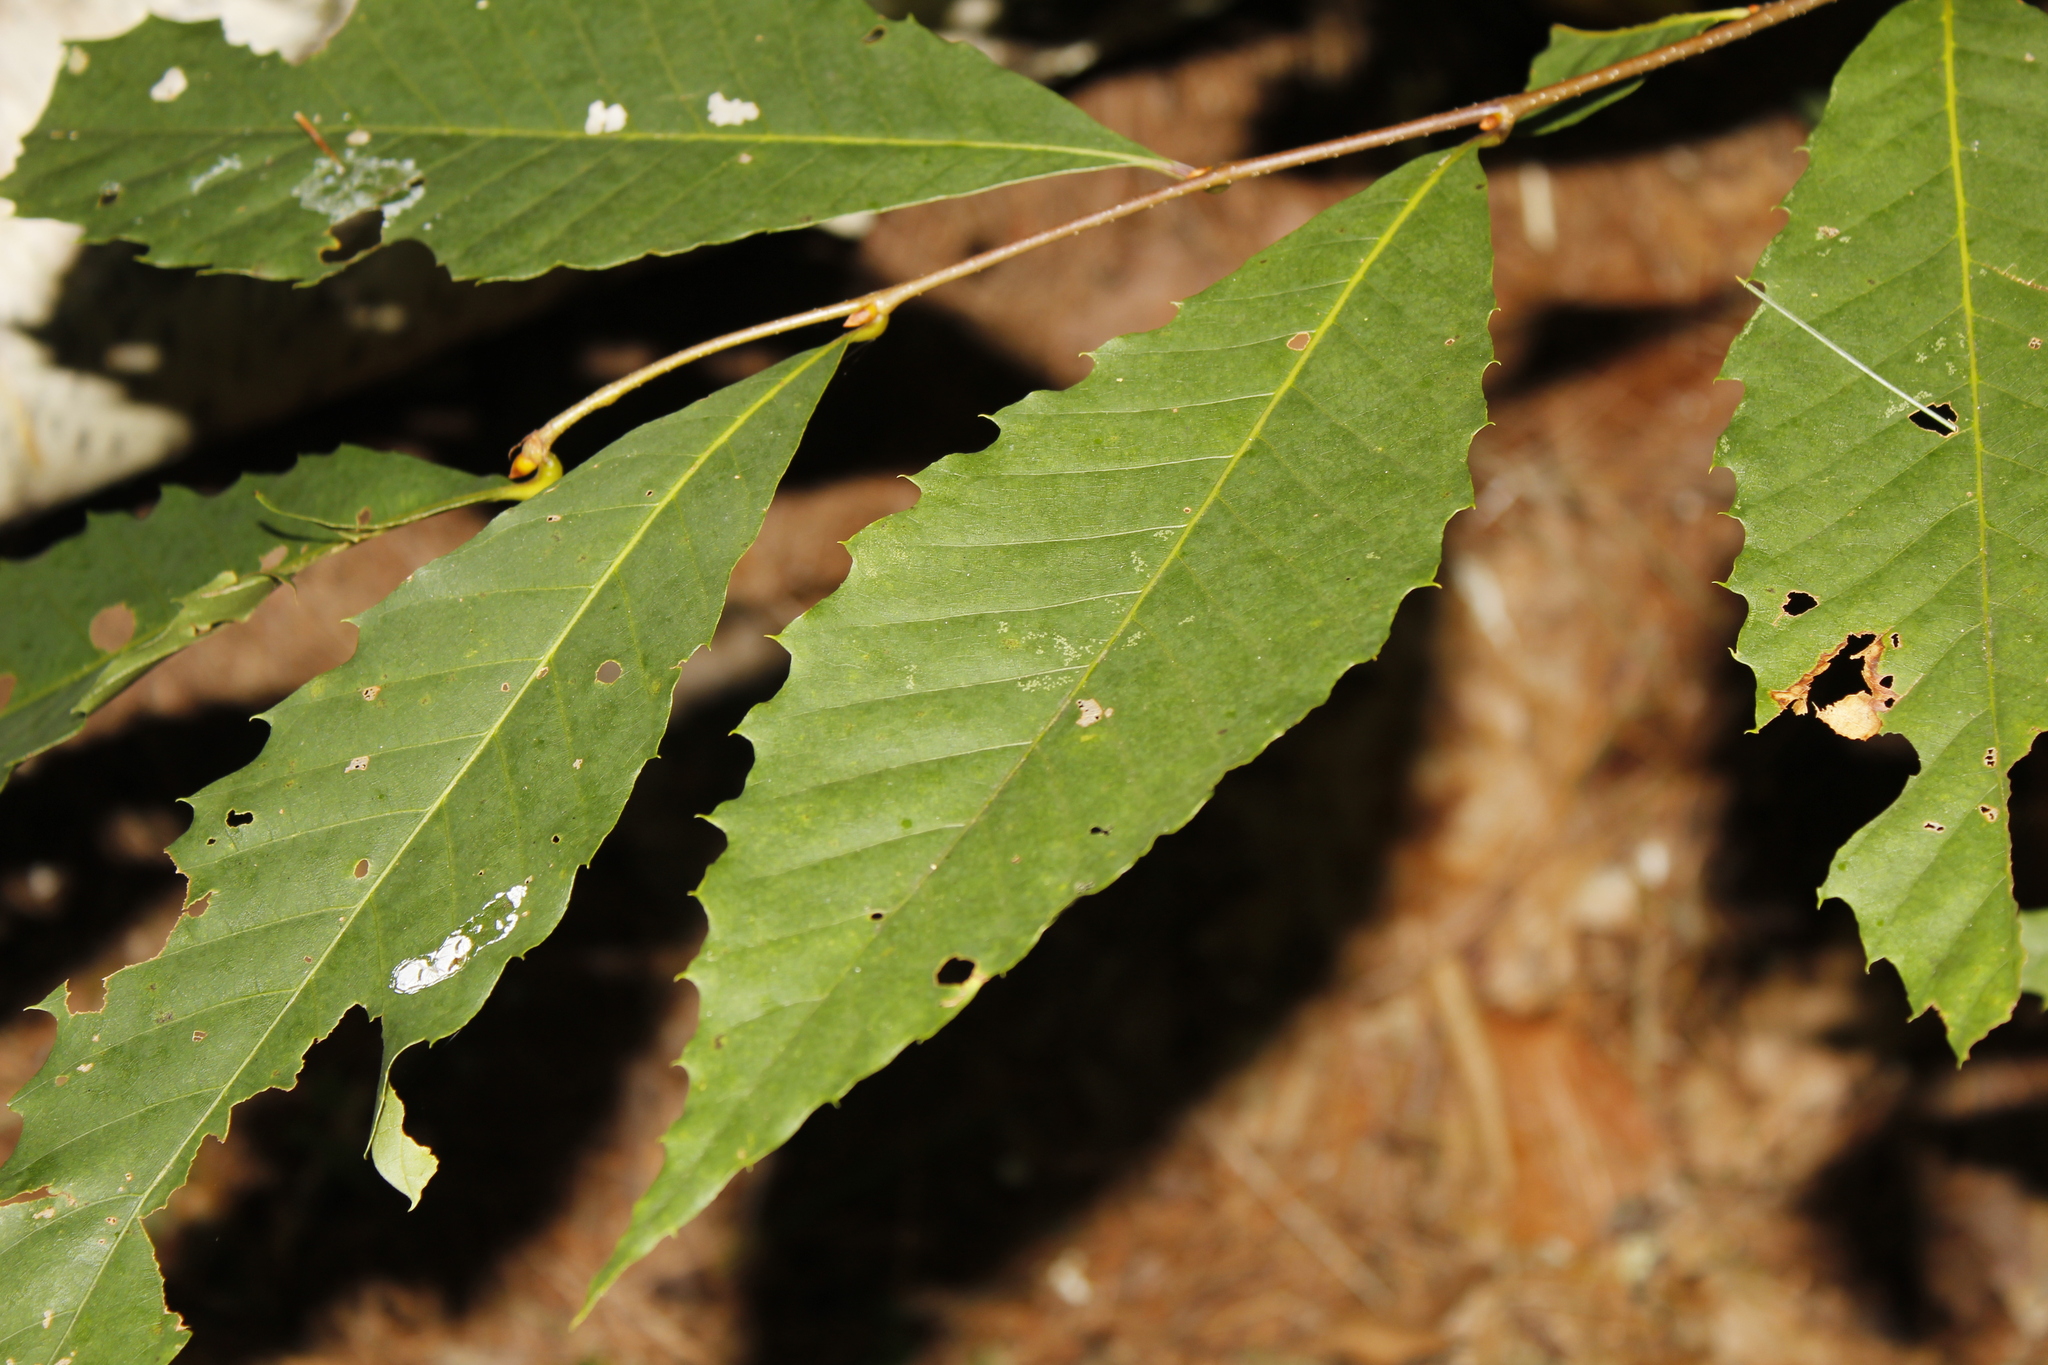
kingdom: Plantae
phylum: Tracheophyta
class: Magnoliopsida
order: Fagales
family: Fagaceae
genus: Castanea
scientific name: Castanea dentata
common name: American chestnut
